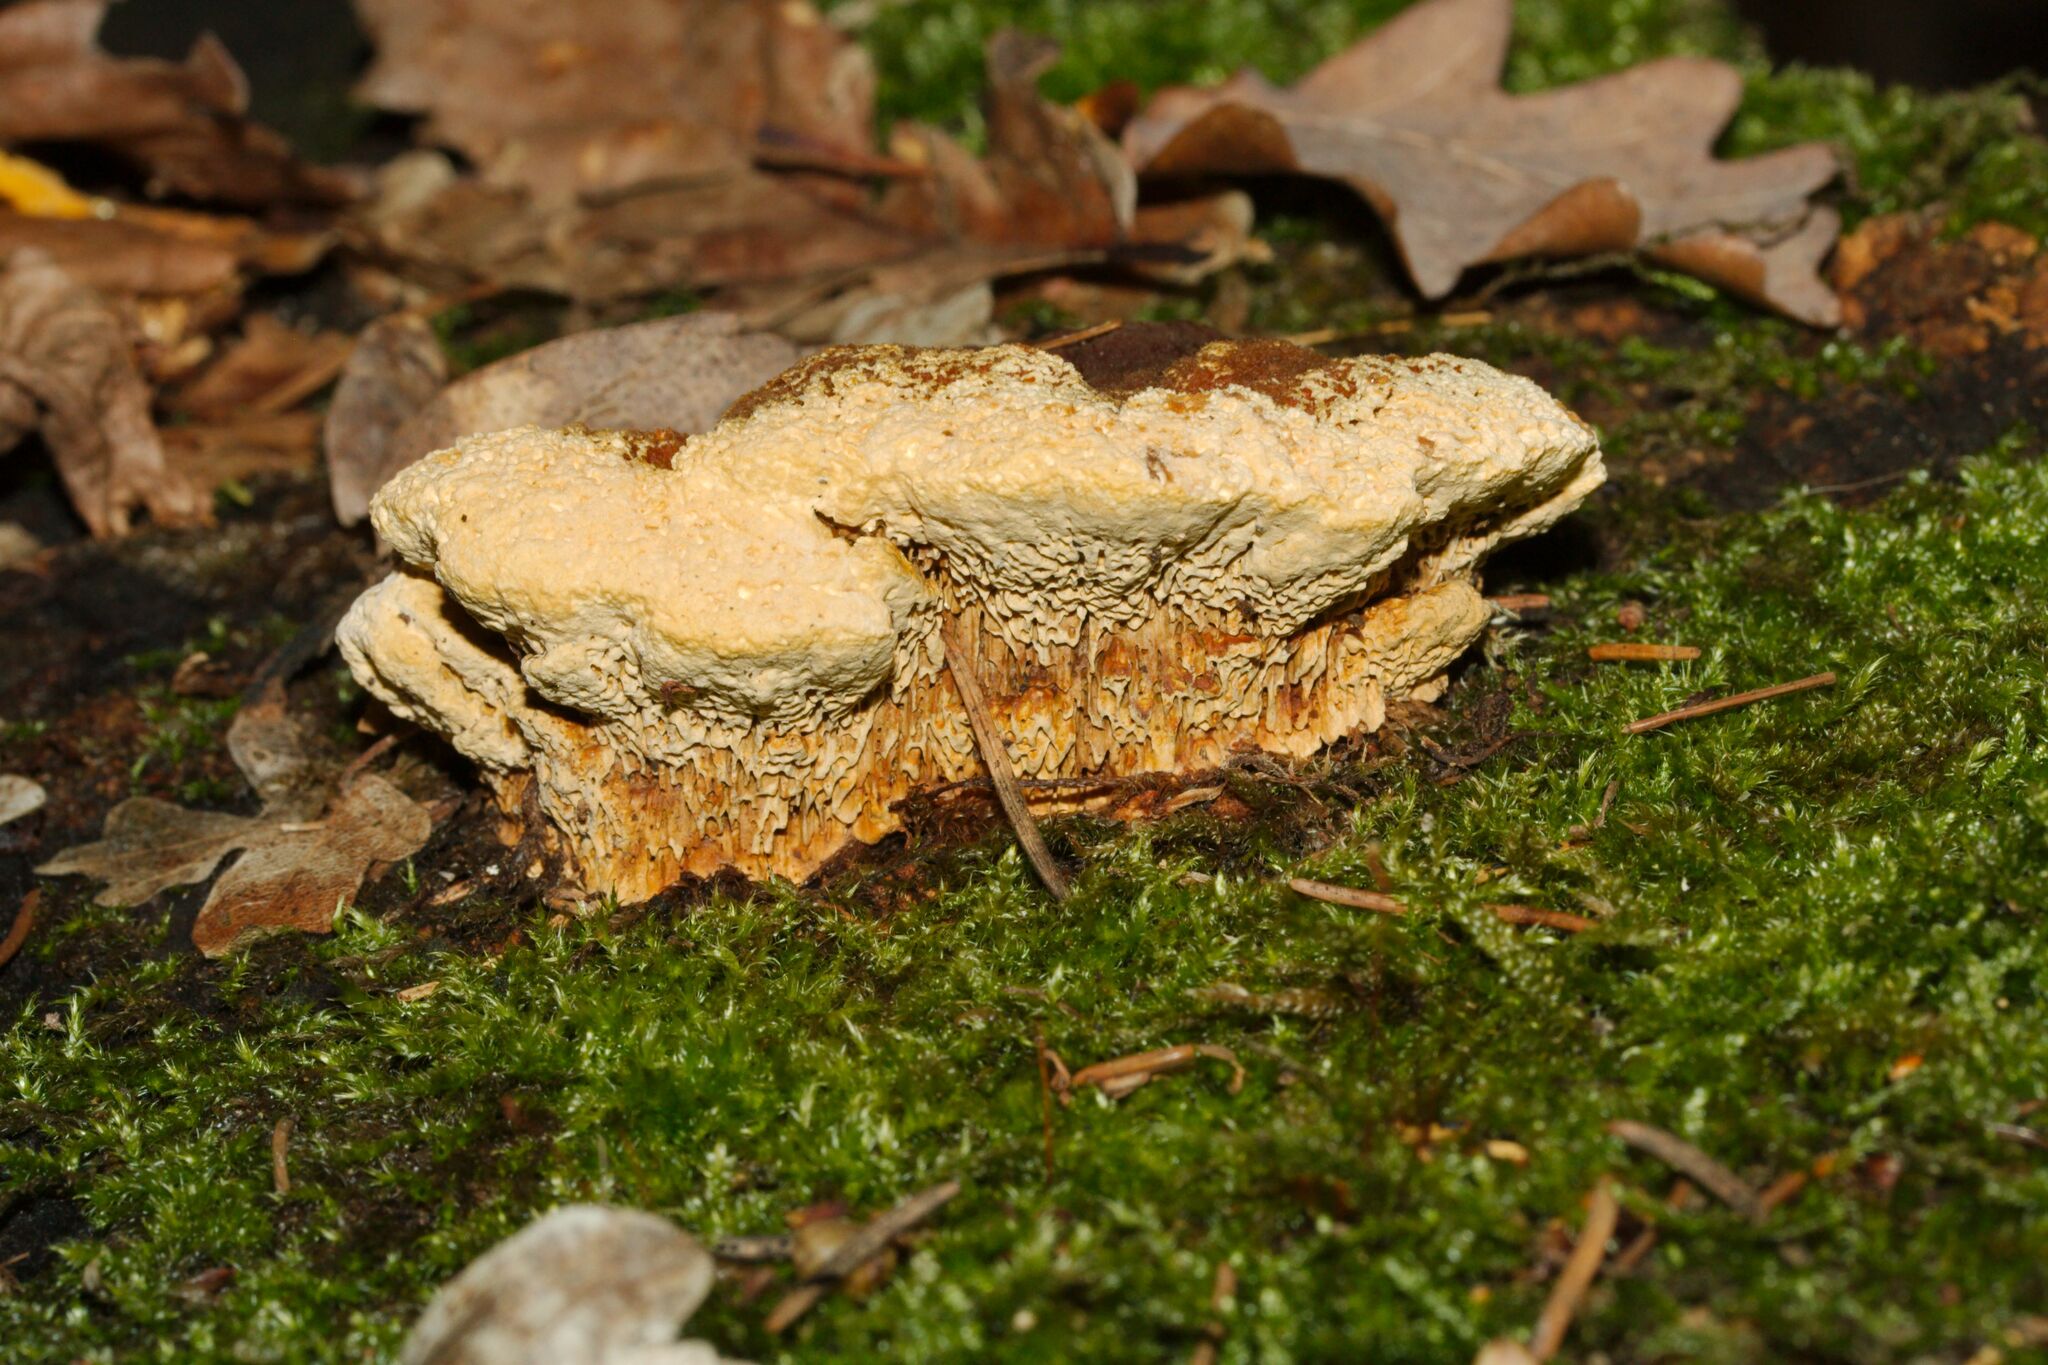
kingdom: Fungi
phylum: Basidiomycota
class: Agaricomycetes
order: Gloeophyllales
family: Gloeophyllaceae
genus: Gloeophyllum
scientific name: Gloeophyllum odoratum
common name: Anise mazegill
